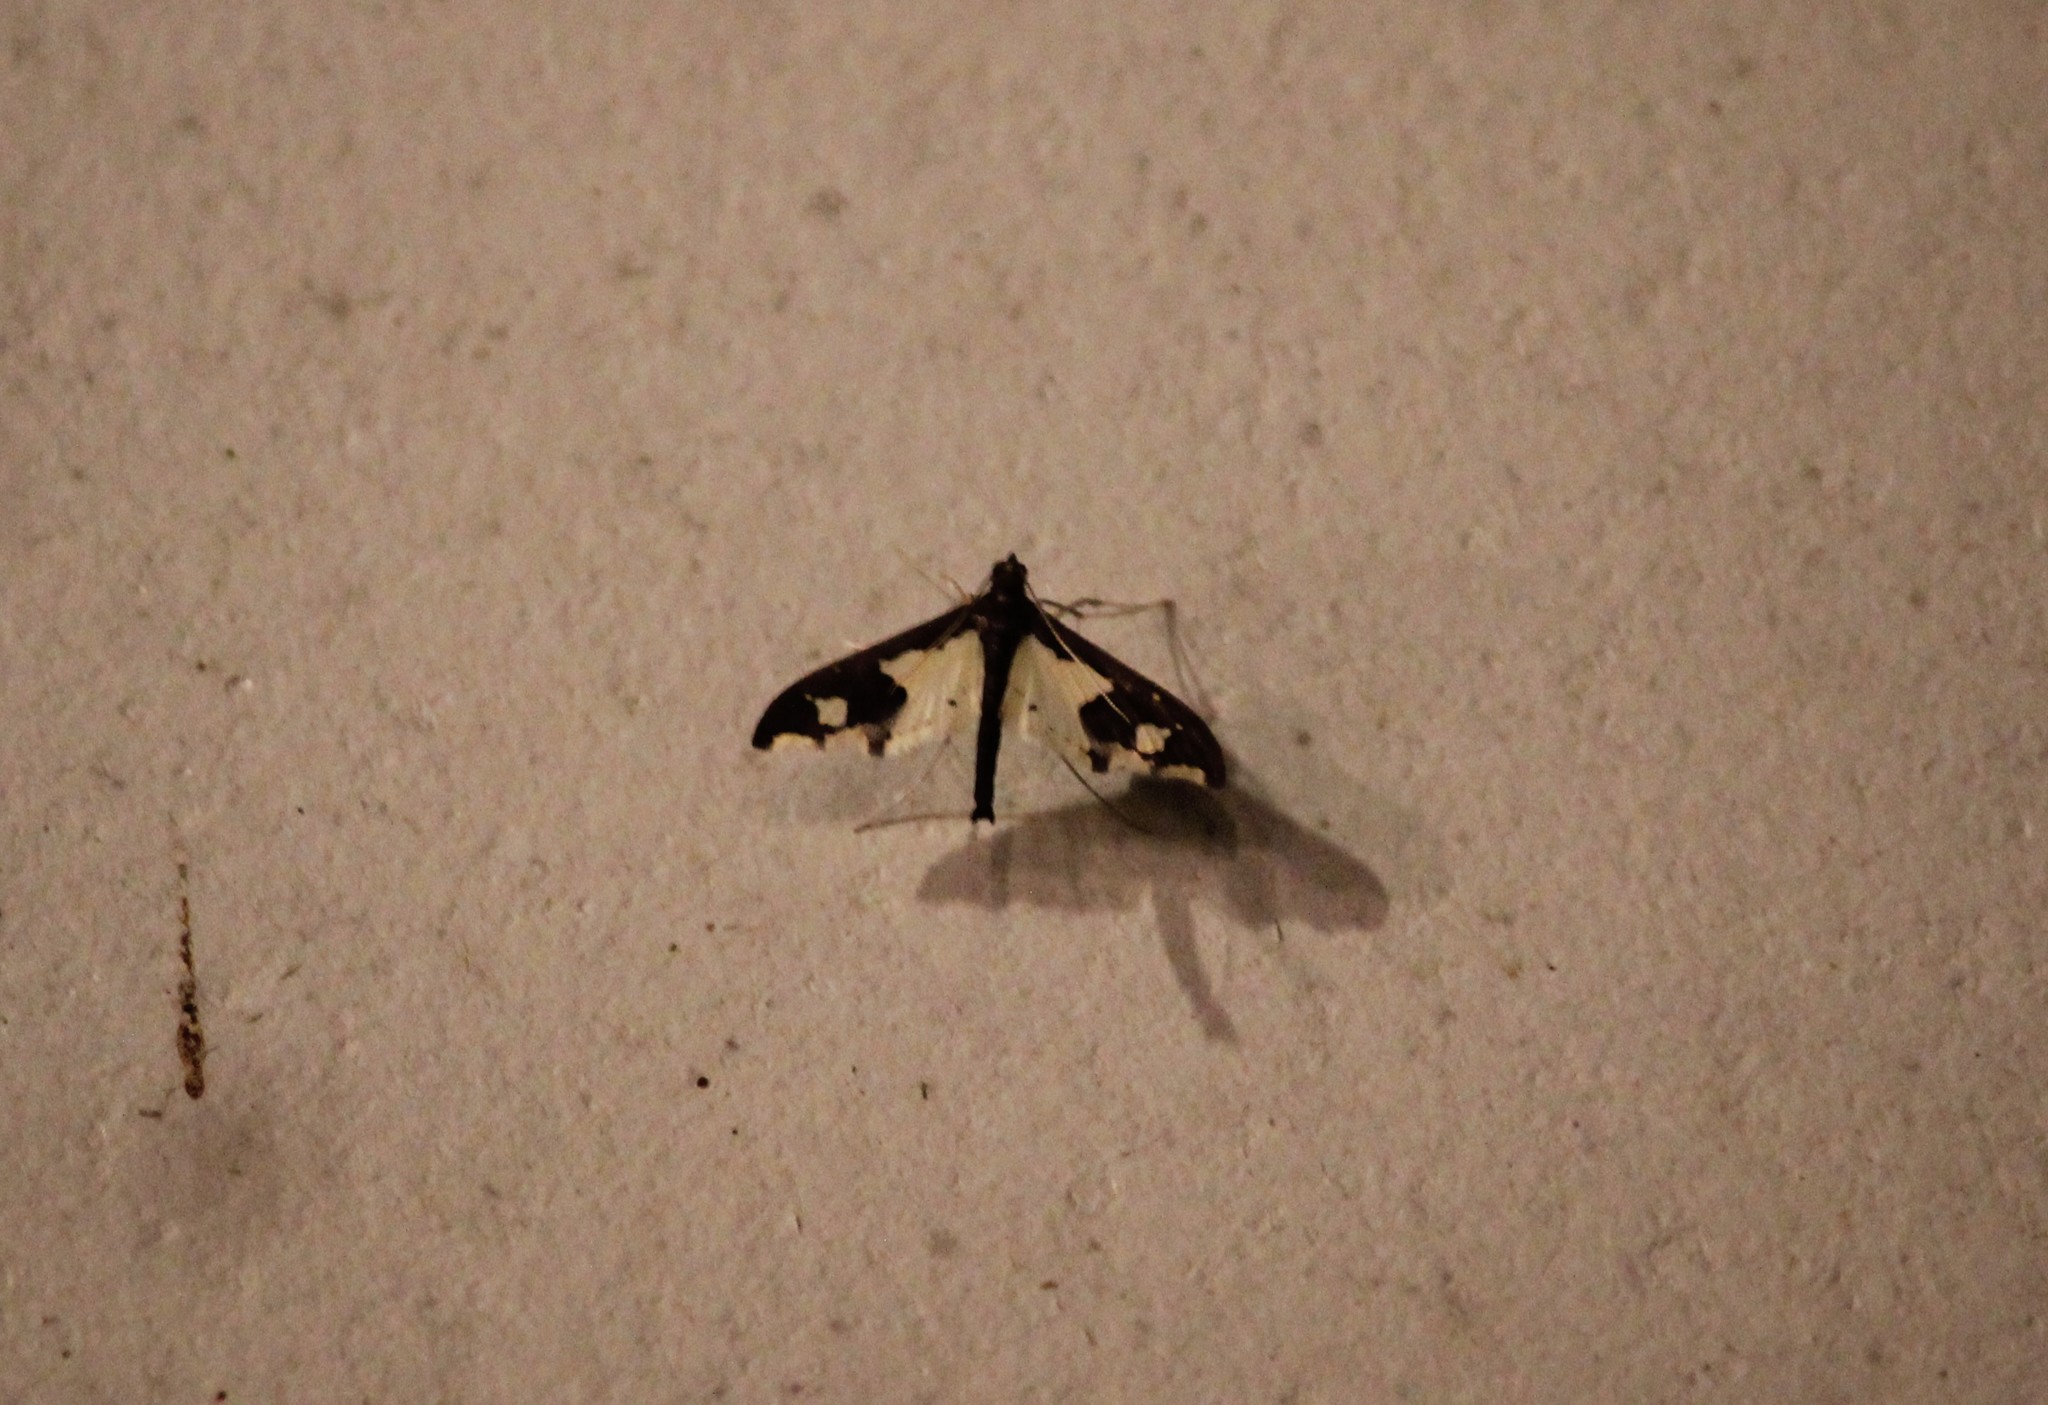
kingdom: Animalia
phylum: Arthropoda
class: Insecta
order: Lepidoptera
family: Crambidae
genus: Gonocausta
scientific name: Gonocausta zephyralis
